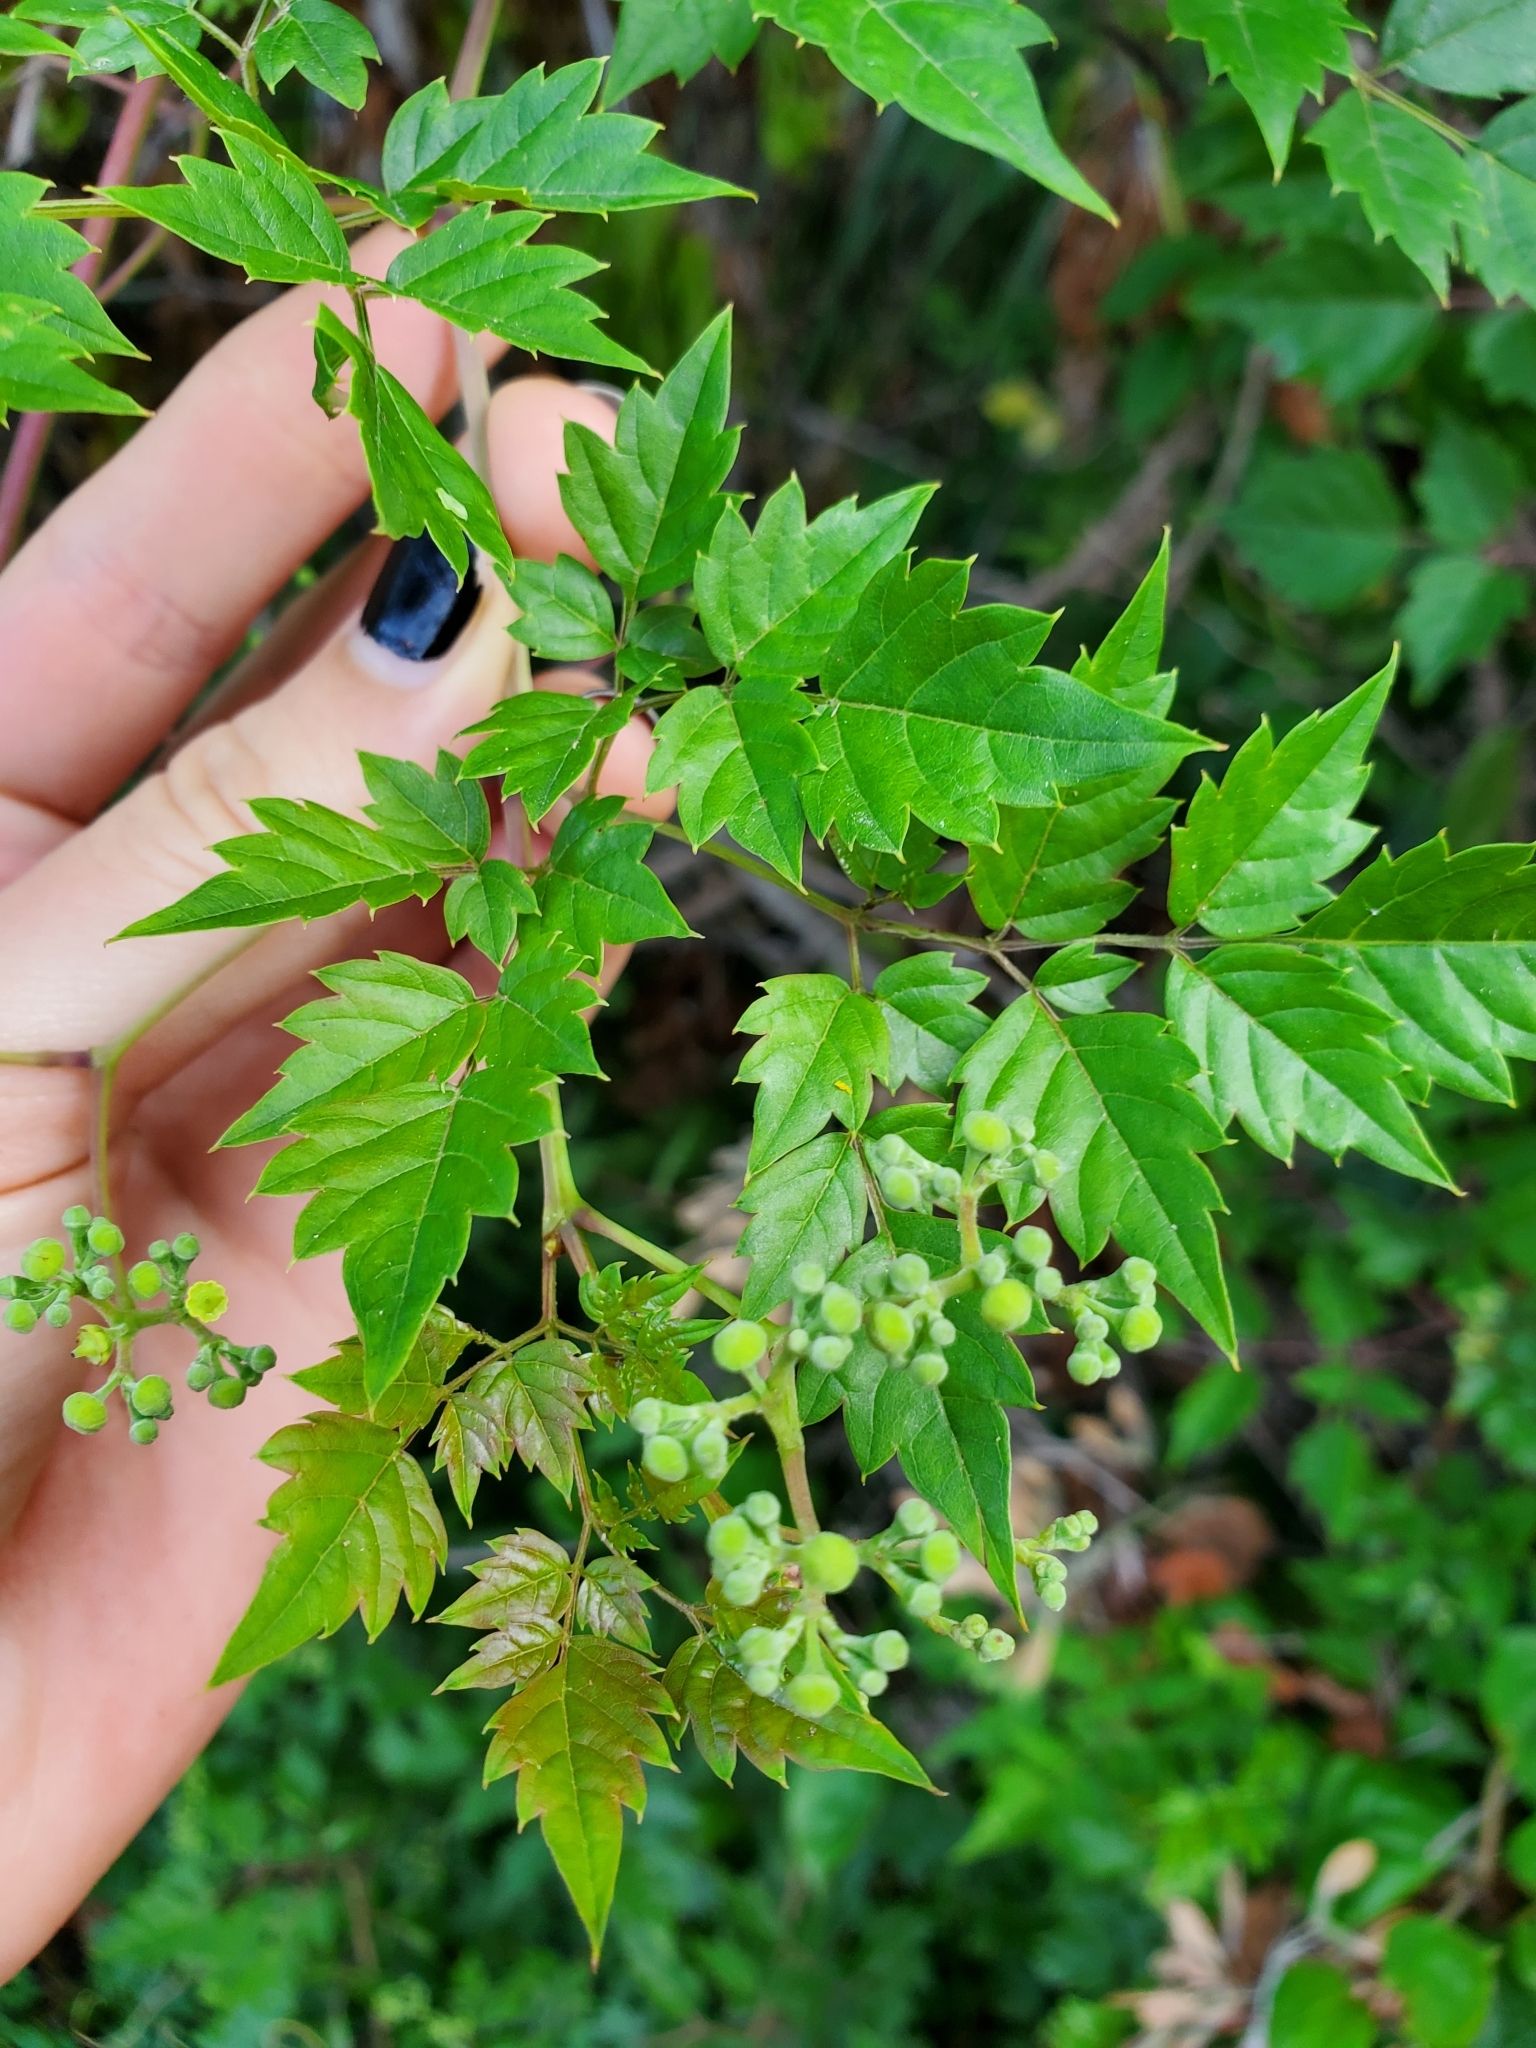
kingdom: Plantae
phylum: Tracheophyta
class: Magnoliopsida
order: Vitales
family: Vitaceae
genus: Nekemias
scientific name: Nekemias arborea
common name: Peppervine
